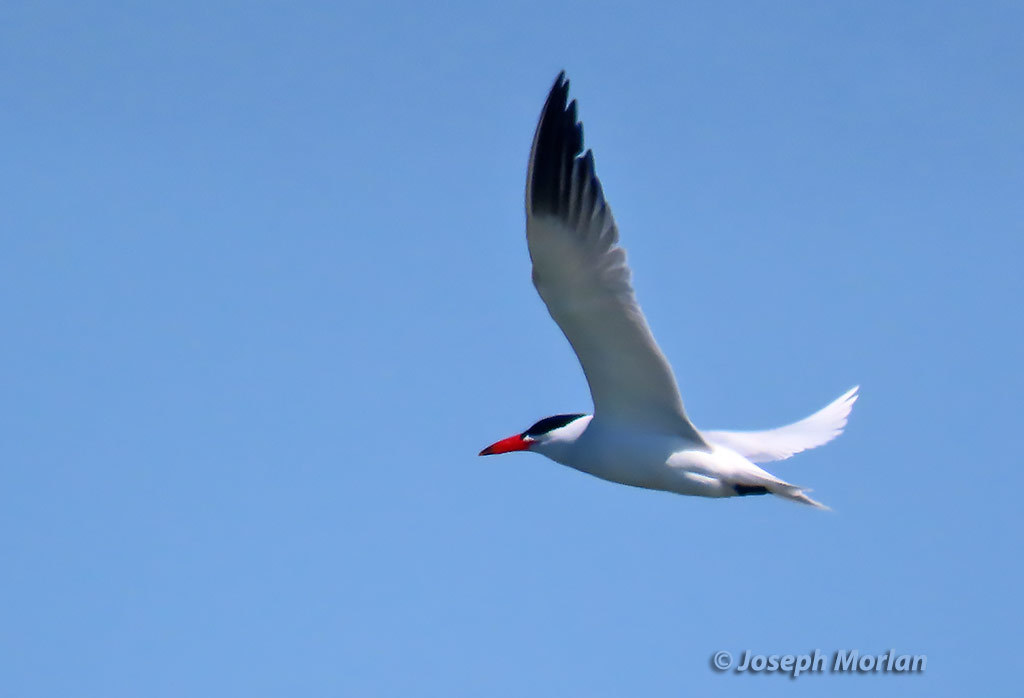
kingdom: Animalia
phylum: Chordata
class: Aves
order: Charadriiformes
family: Laridae
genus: Hydroprogne
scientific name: Hydroprogne caspia
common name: Caspian tern
